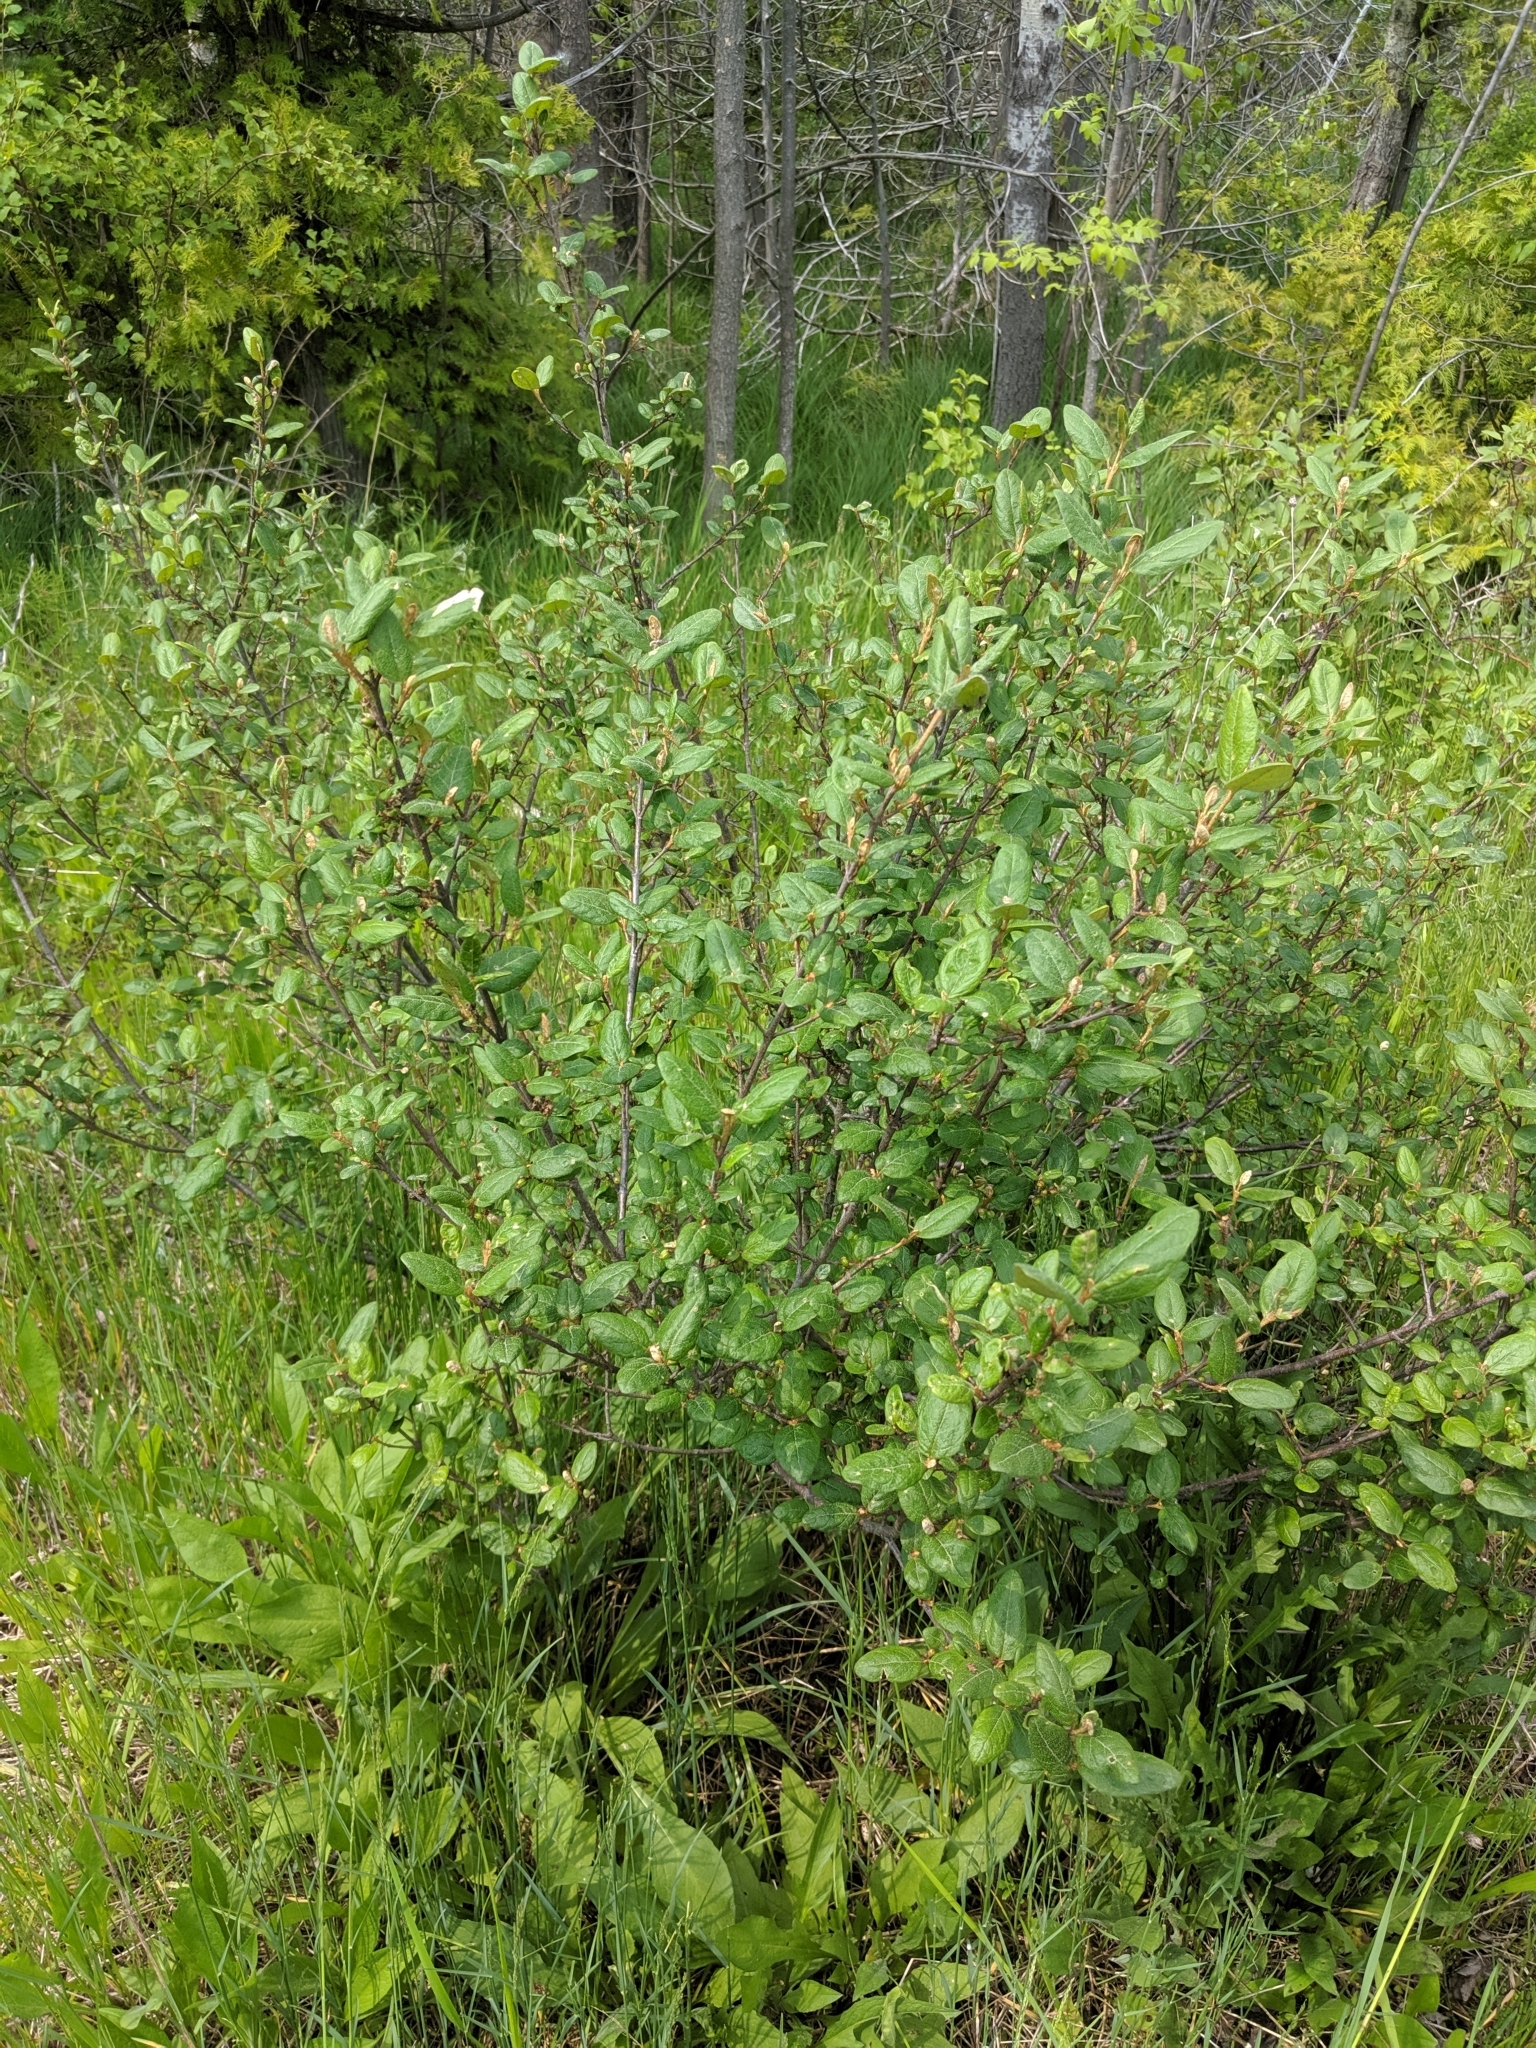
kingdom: Plantae
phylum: Tracheophyta
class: Magnoliopsida
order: Rosales
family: Elaeagnaceae
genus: Shepherdia
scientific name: Shepherdia canadensis
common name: Soapberry
